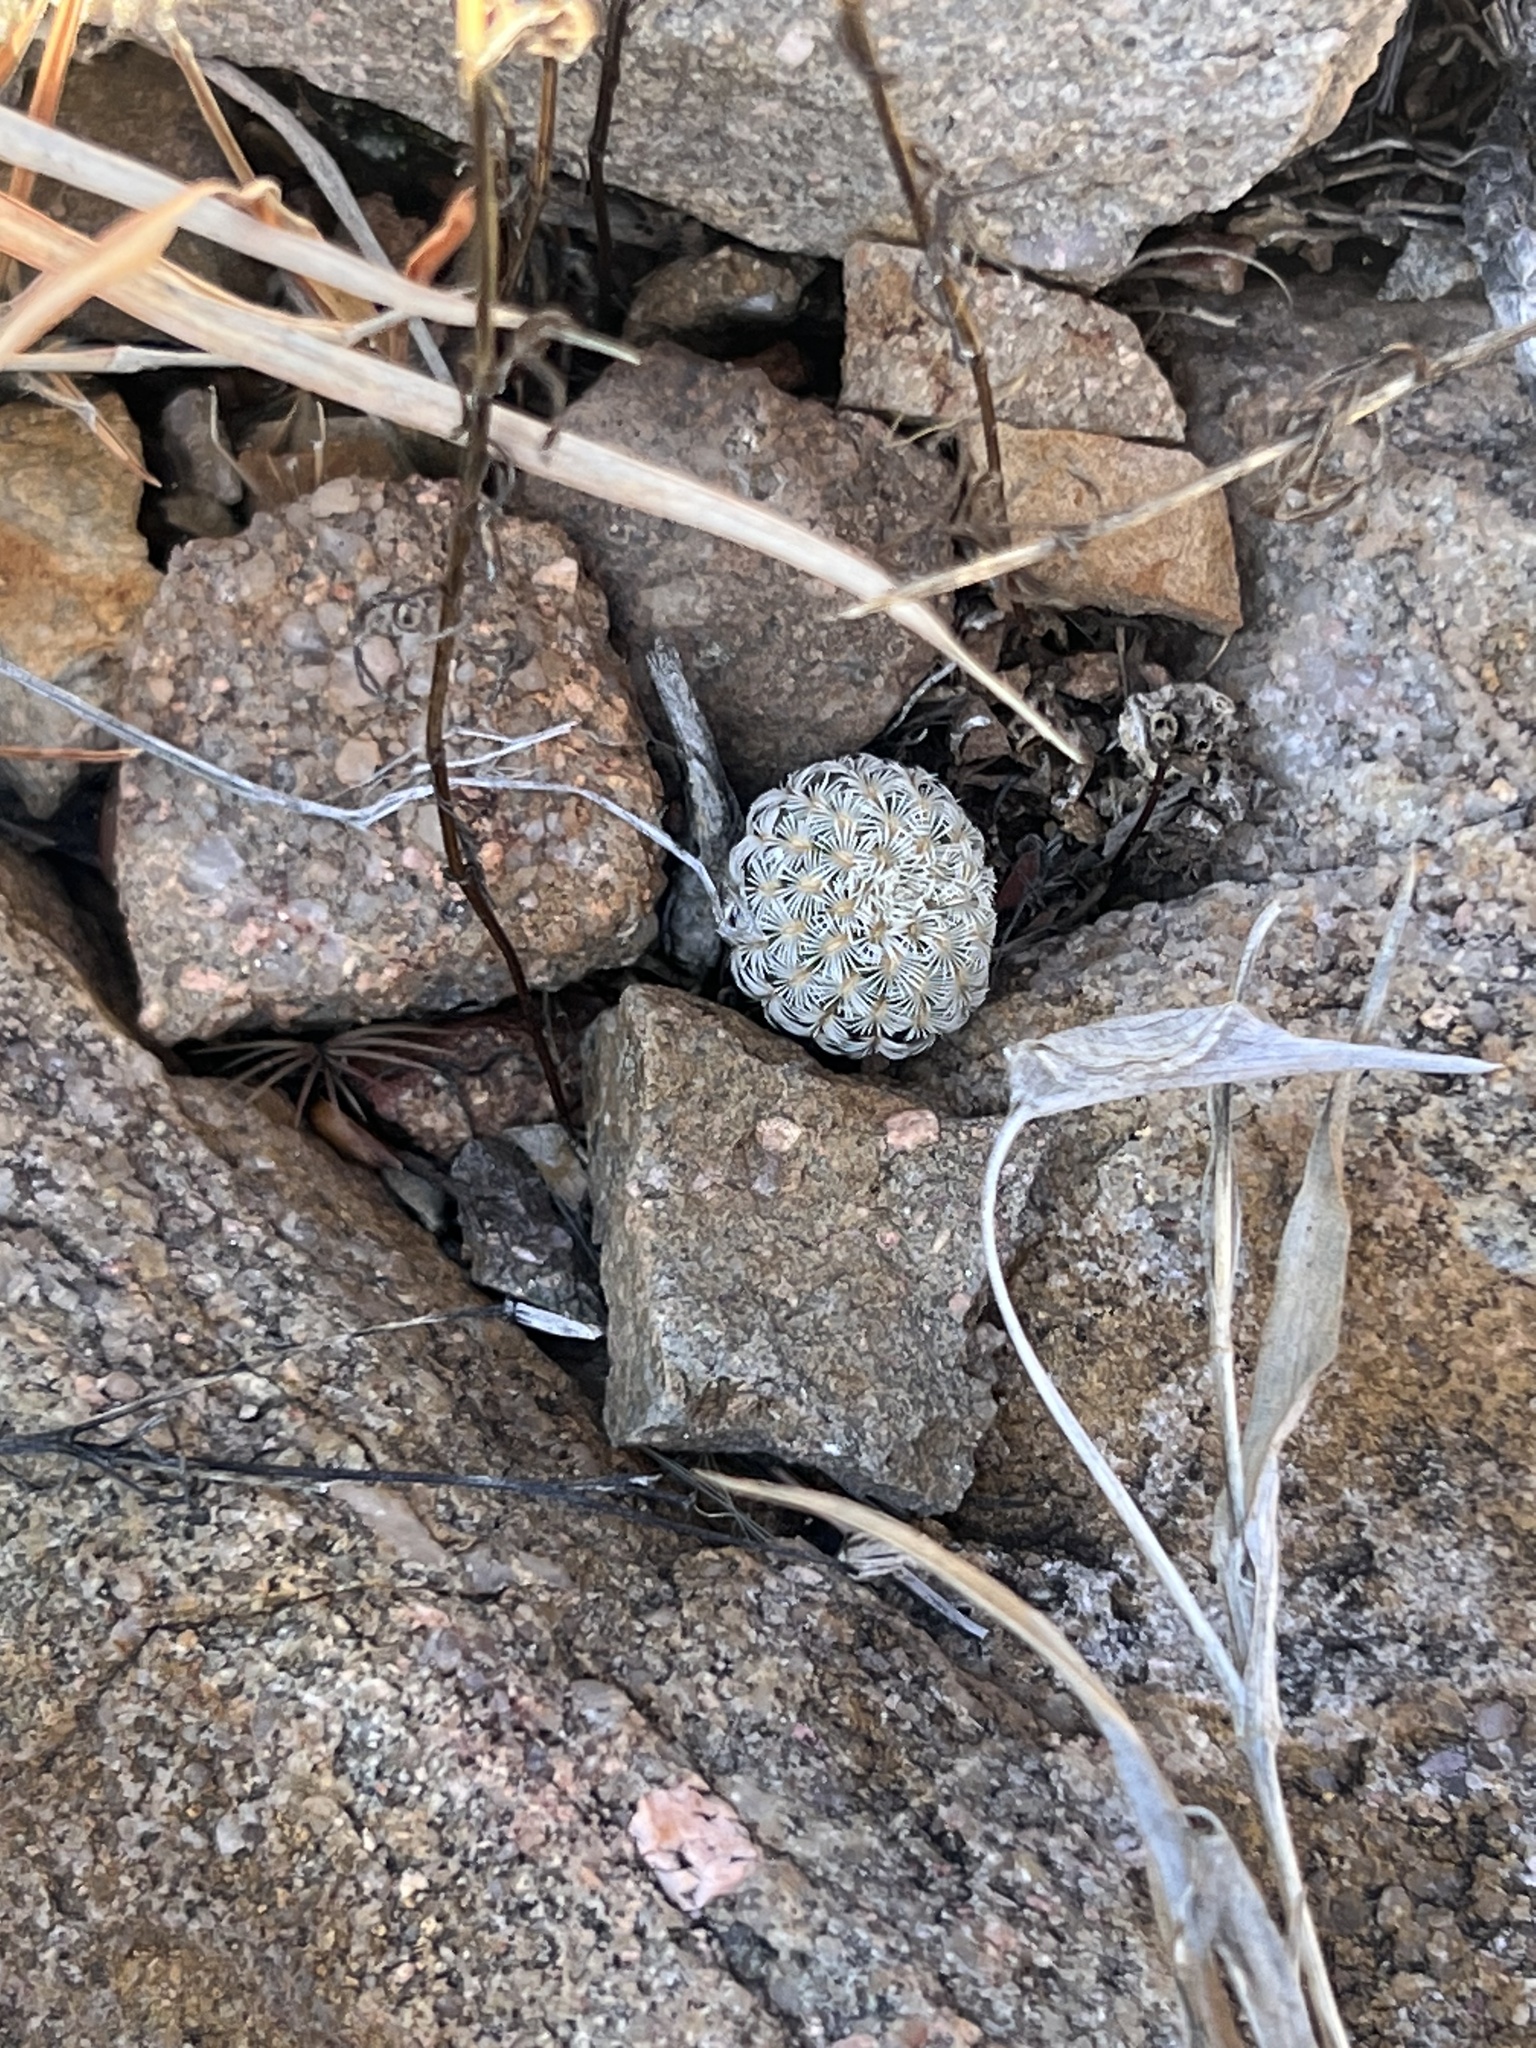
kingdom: Plantae
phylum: Tracheophyta
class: Magnoliopsida
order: Caryophyllales
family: Cactaceae
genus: Echinocereus
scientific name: Echinocereus rigidissimus
